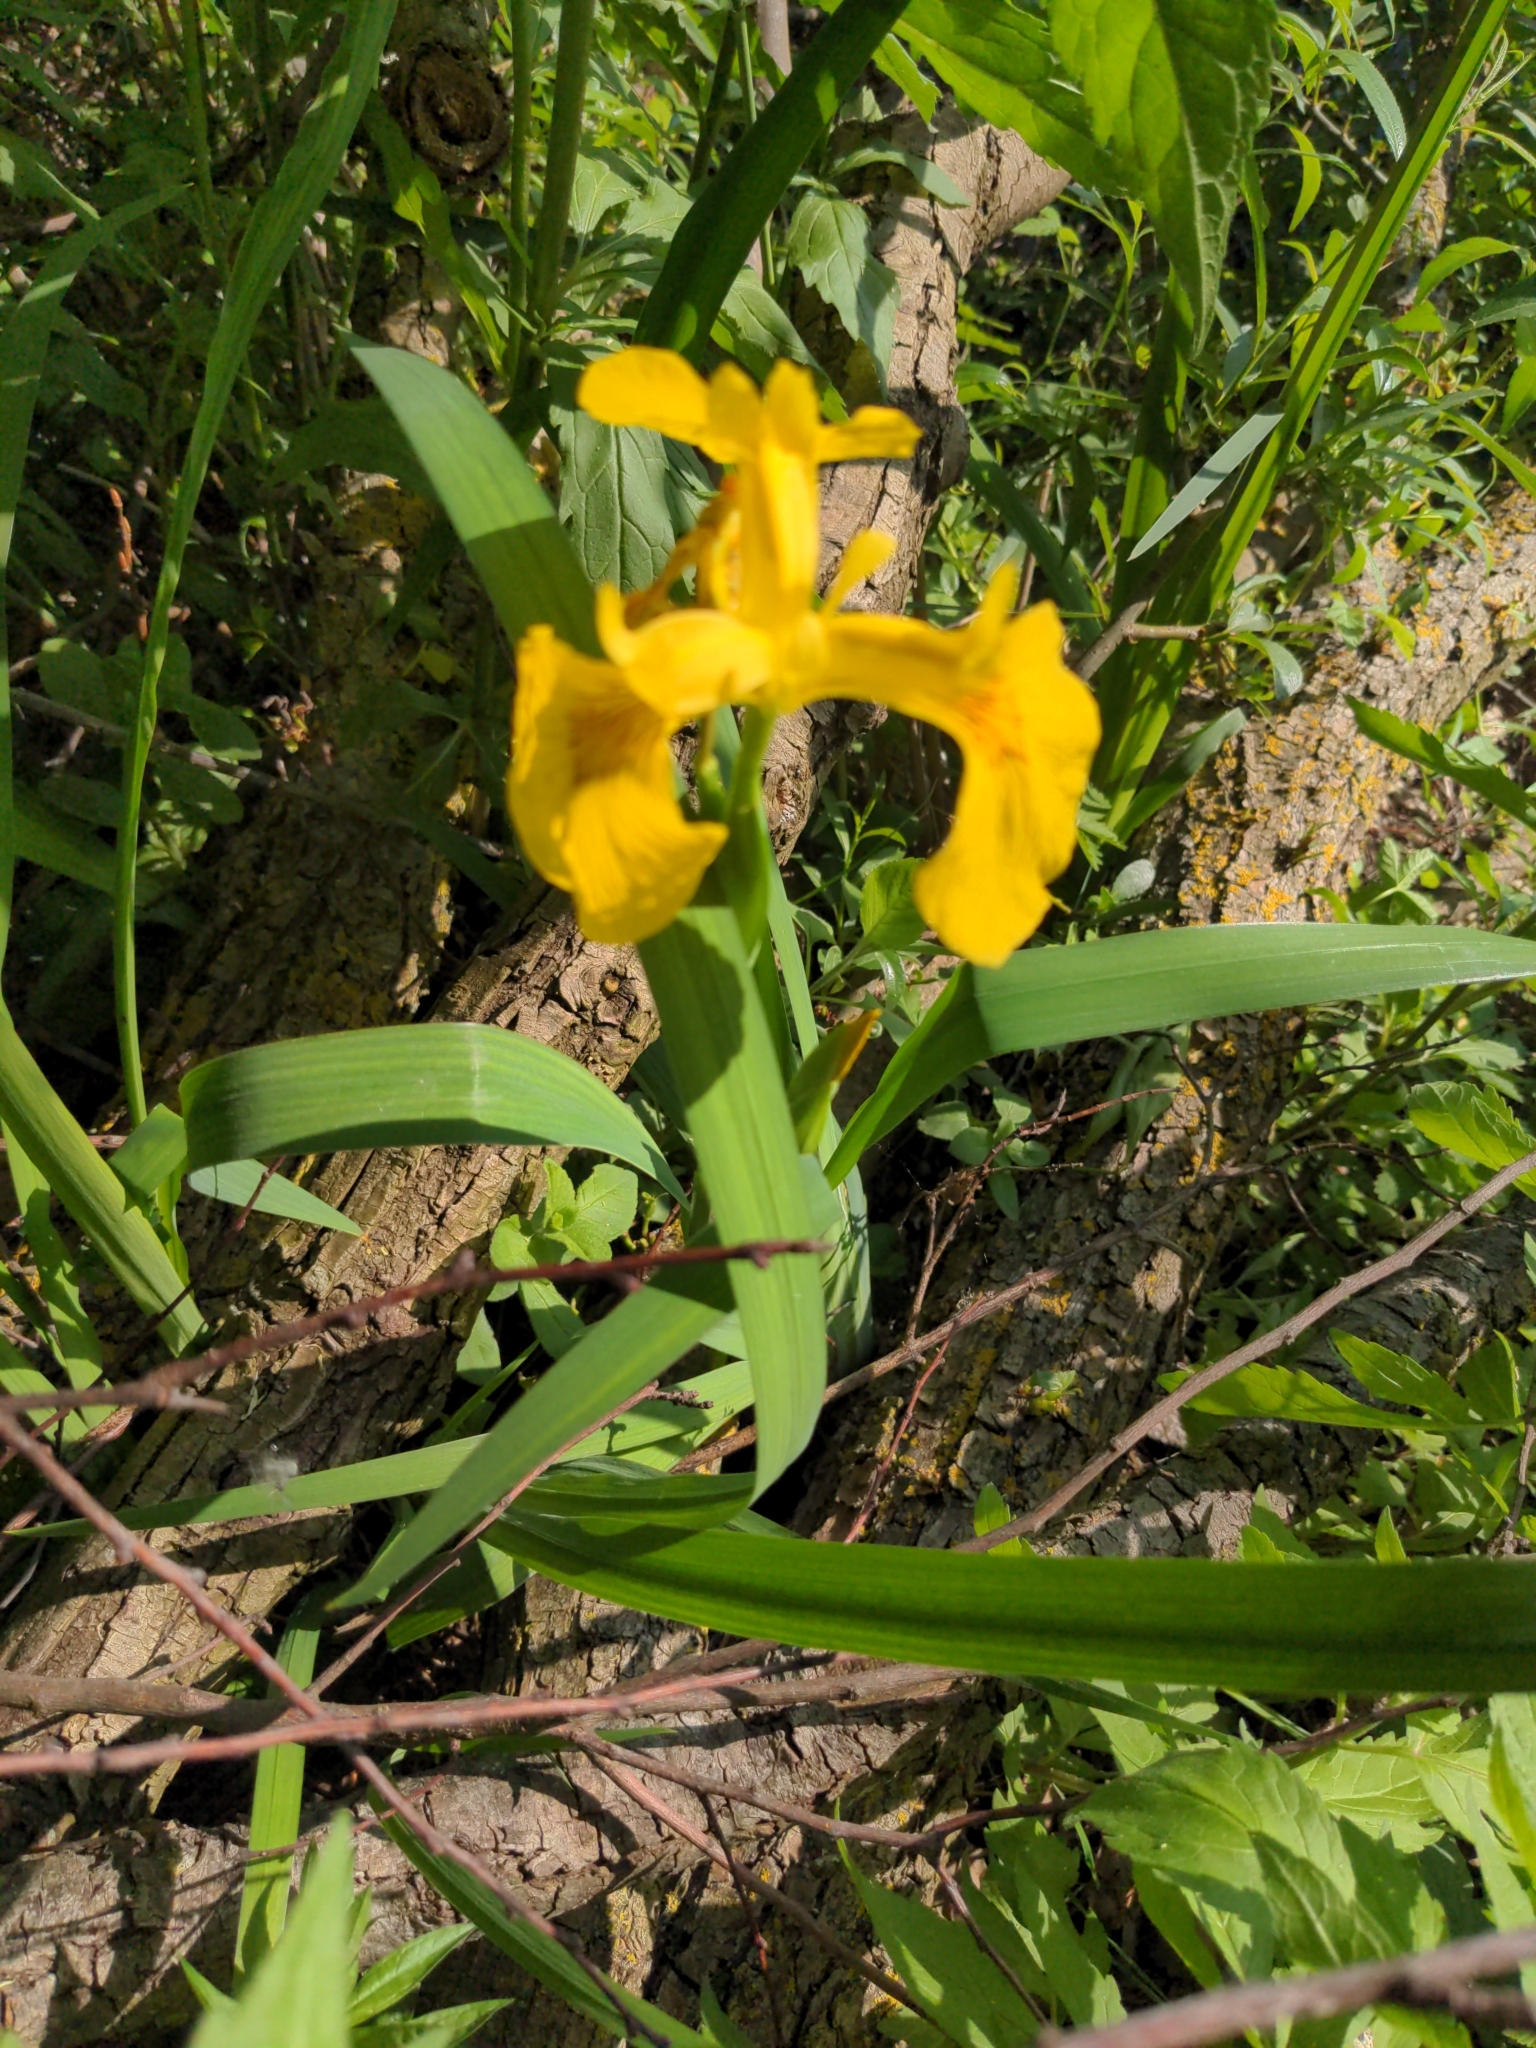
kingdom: Plantae
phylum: Tracheophyta
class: Liliopsida
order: Asparagales
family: Iridaceae
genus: Iris
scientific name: Iris pseudacorus
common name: Yellow flag
